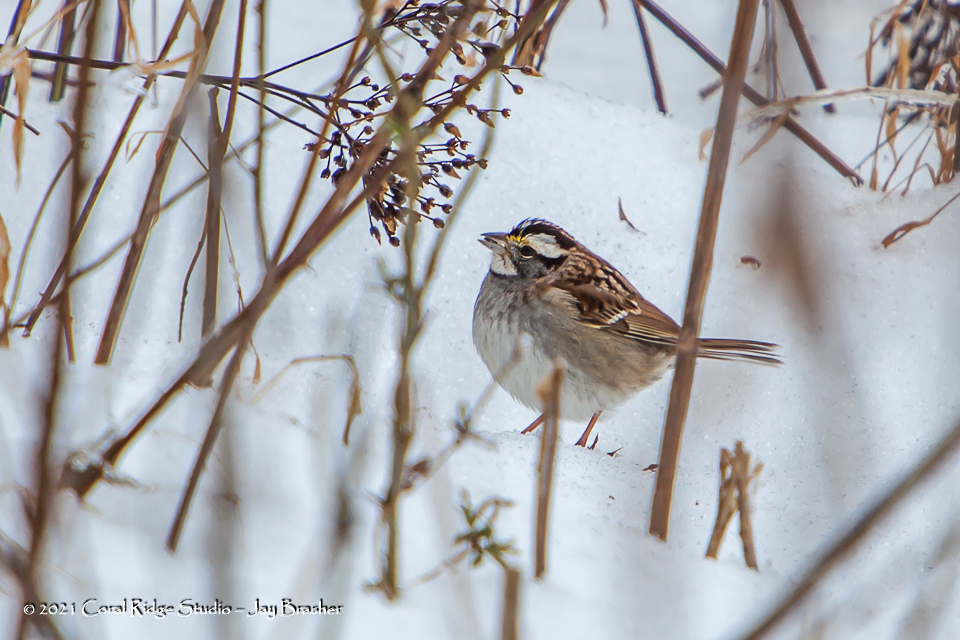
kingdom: Animalia
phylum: Chordata
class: Aves
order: Passeriformes
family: Passerellidae
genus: Zonotrichia
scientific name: Zonotrichia albicollis
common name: White-throated sparrow
